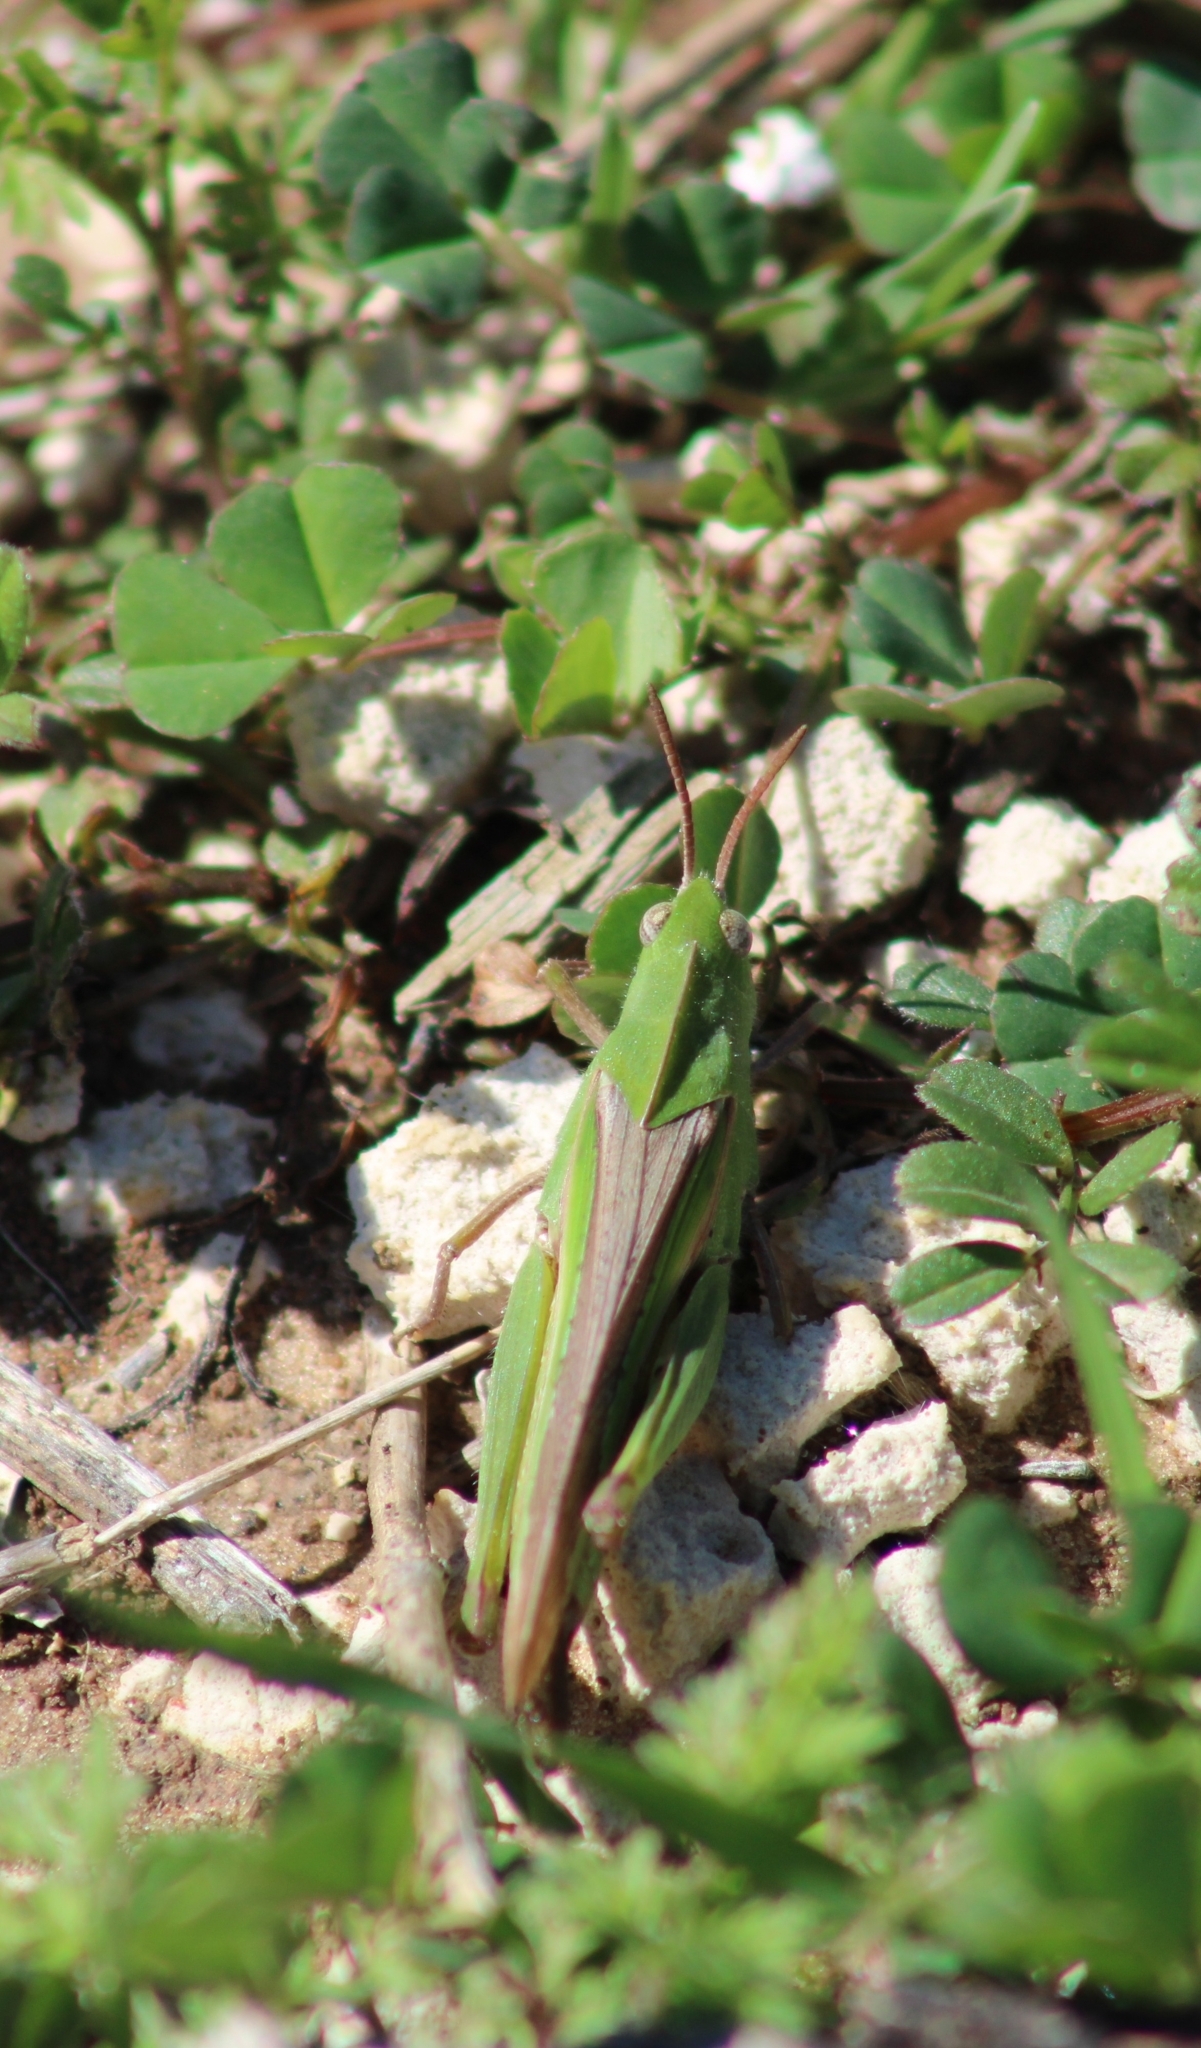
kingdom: Animalia
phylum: Arthropoda
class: Insecta
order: Orthoptera
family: Acrididae
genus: Chortophaga
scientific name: Chortophaga viridifasciata
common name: Green-striped grasshopper
